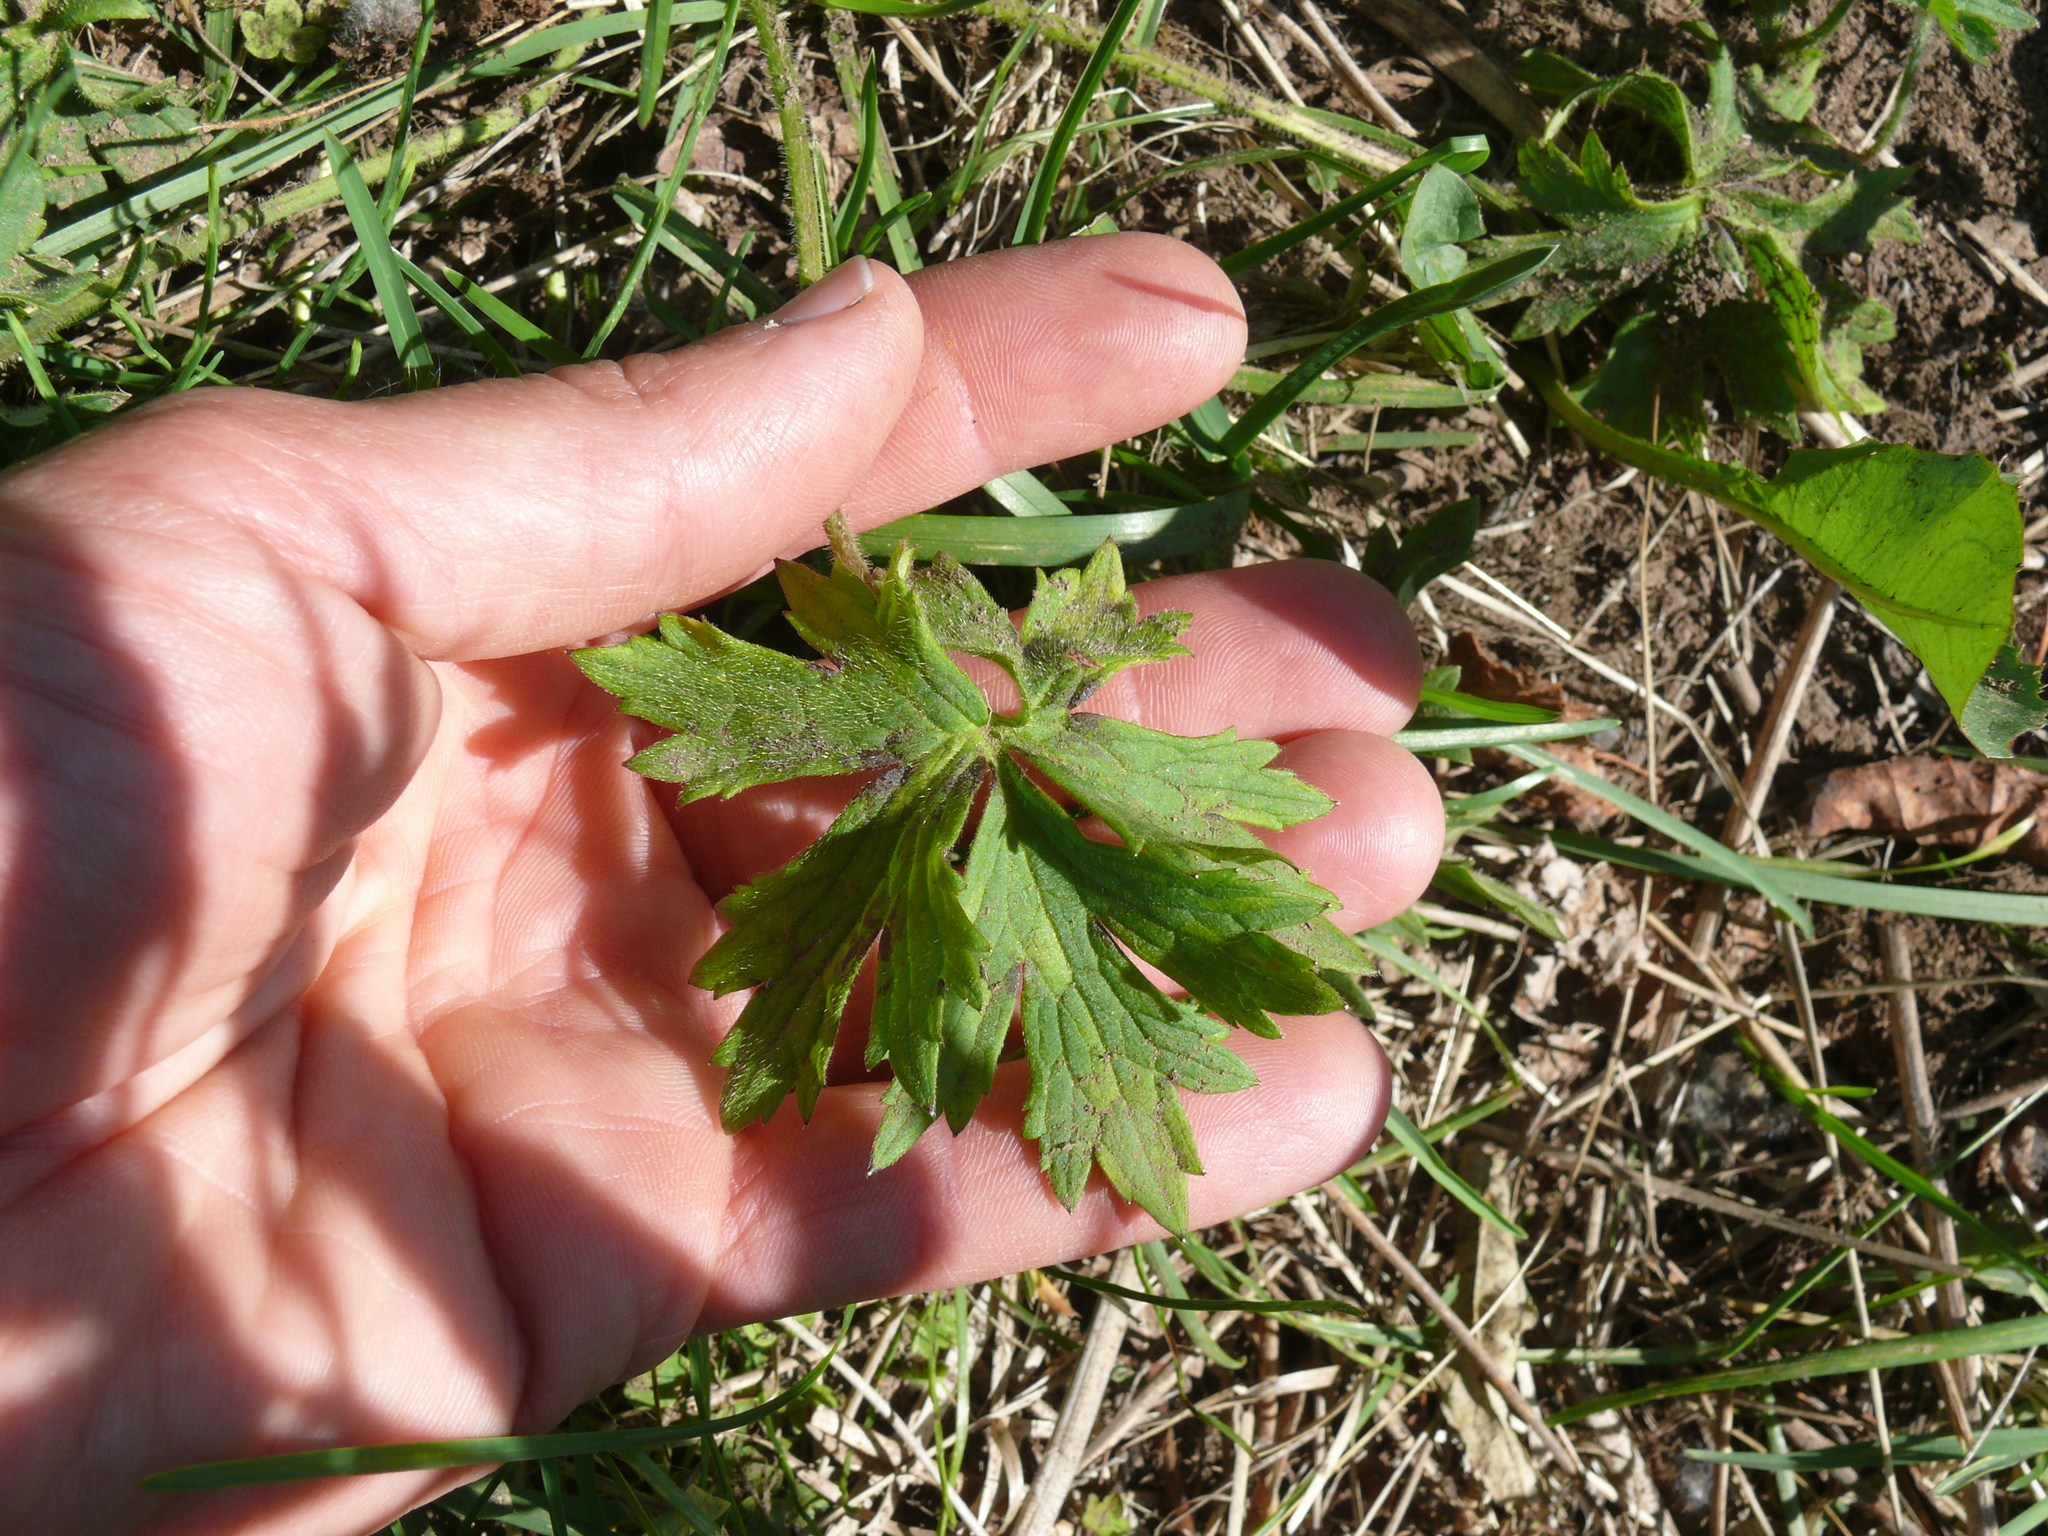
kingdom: Plantae
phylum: Tracheophyta
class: Magnoliopsida
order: Ranunculales
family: Ranunculaceae
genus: Ranunculus
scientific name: Ranunculus acris
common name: Meadow buttercup
